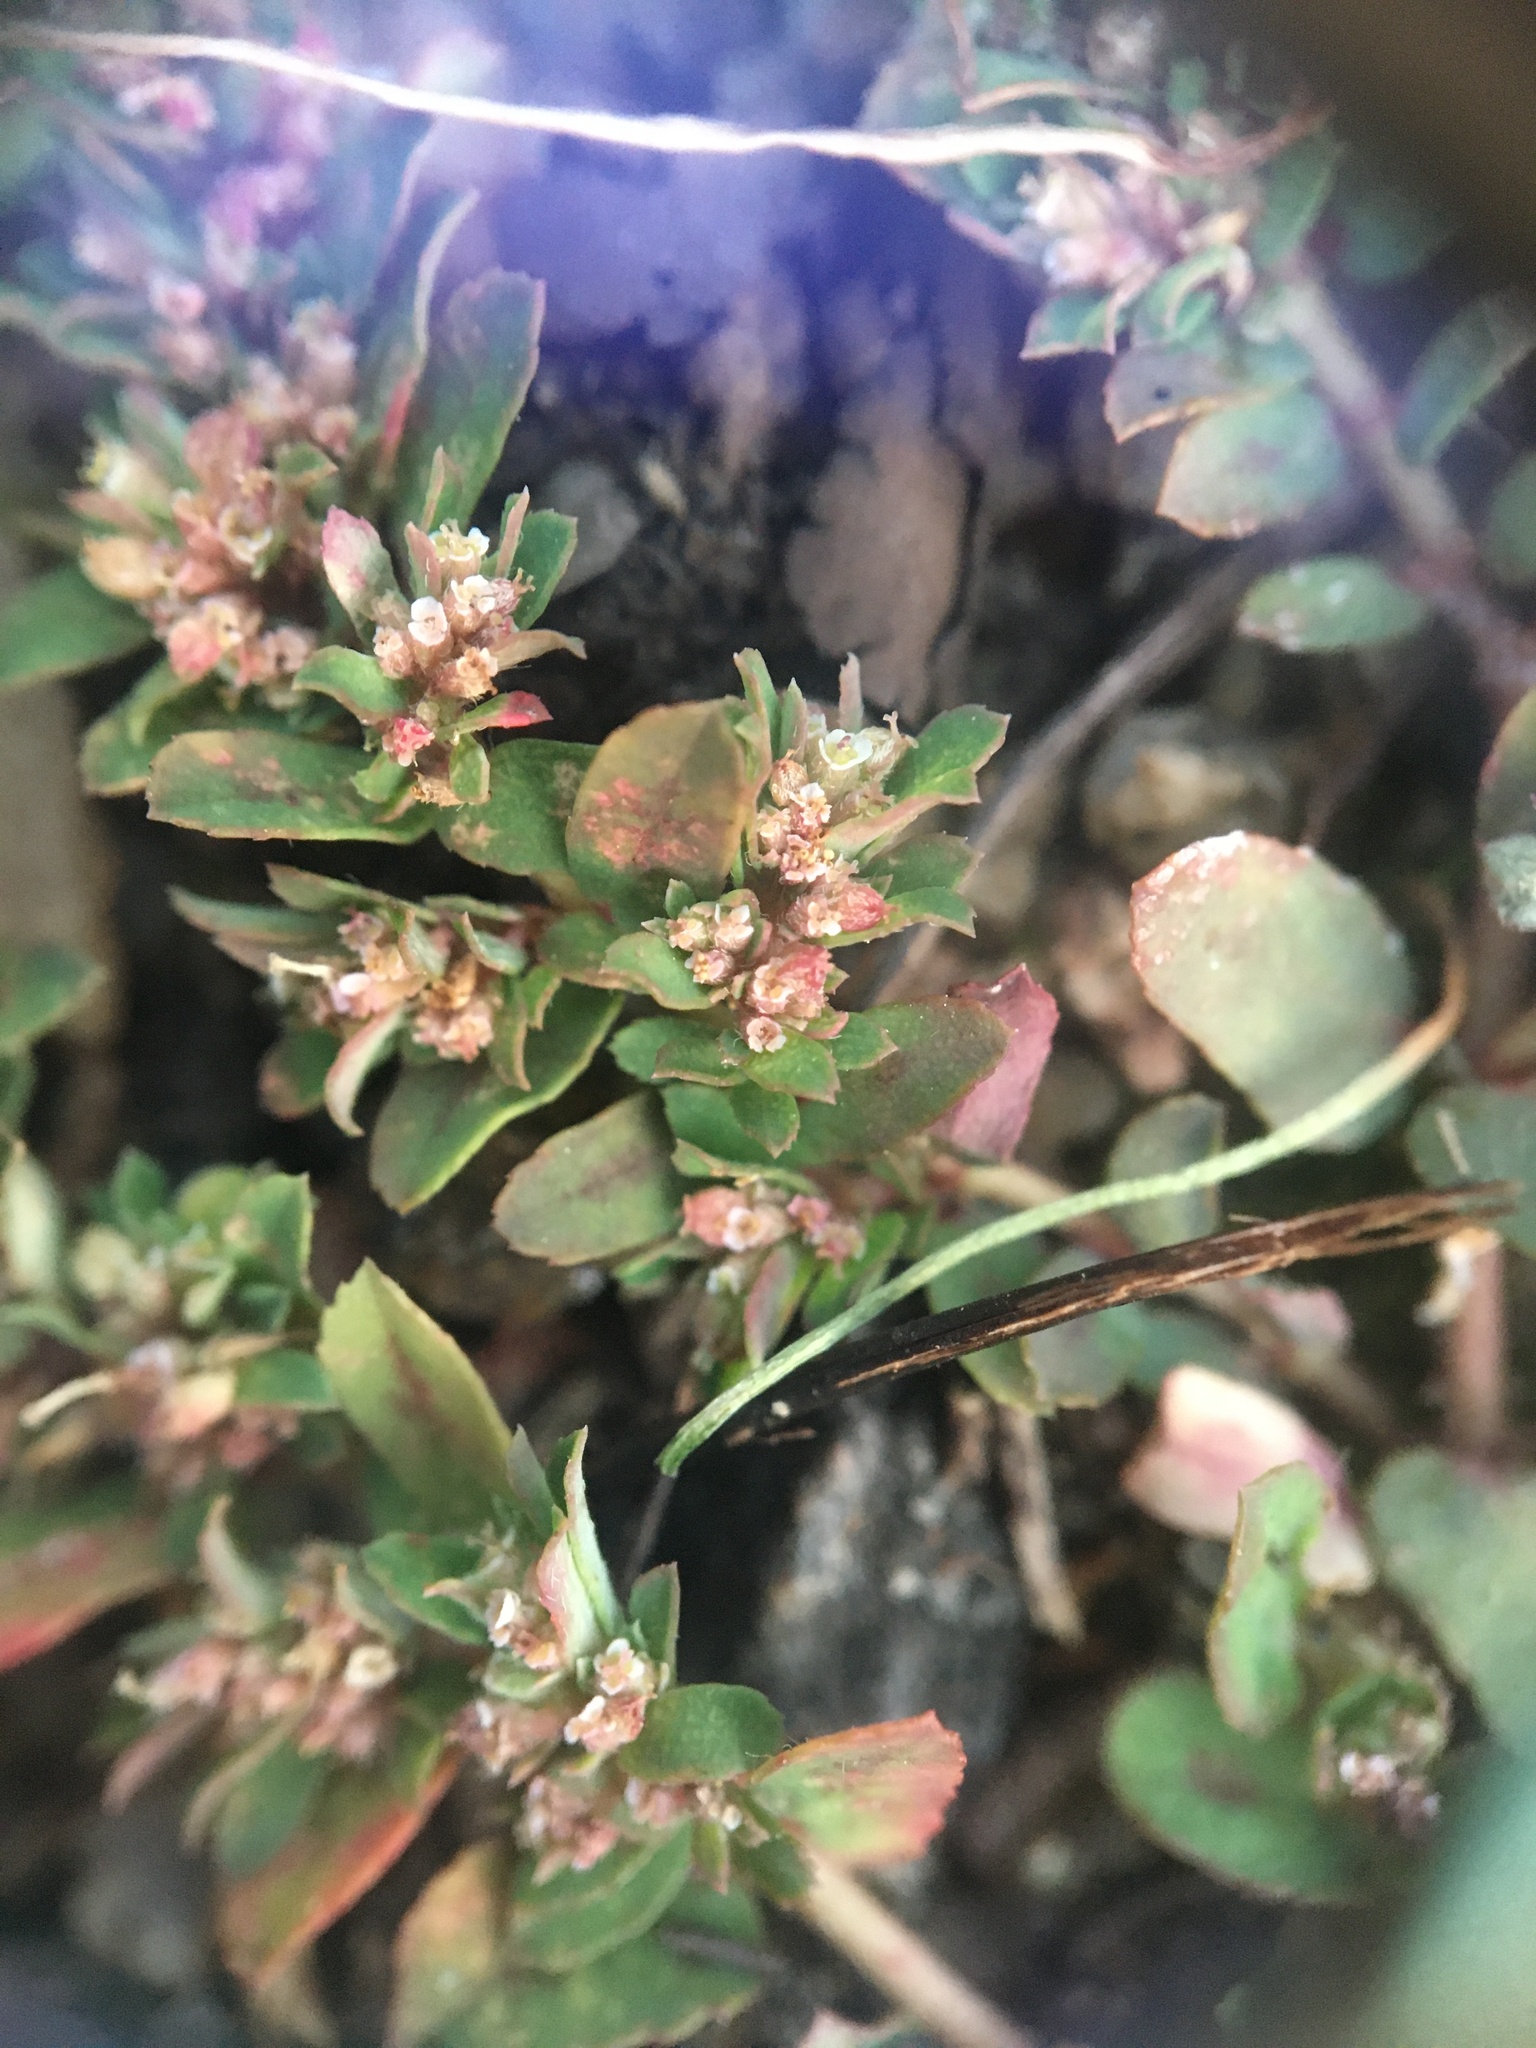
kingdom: Plantae
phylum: Tracheophyta
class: Magnoliopsida
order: Malpighiales
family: Euphorbiaceae
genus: Euphorbia
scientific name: Euphorbia maculata
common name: Spotted spurge
